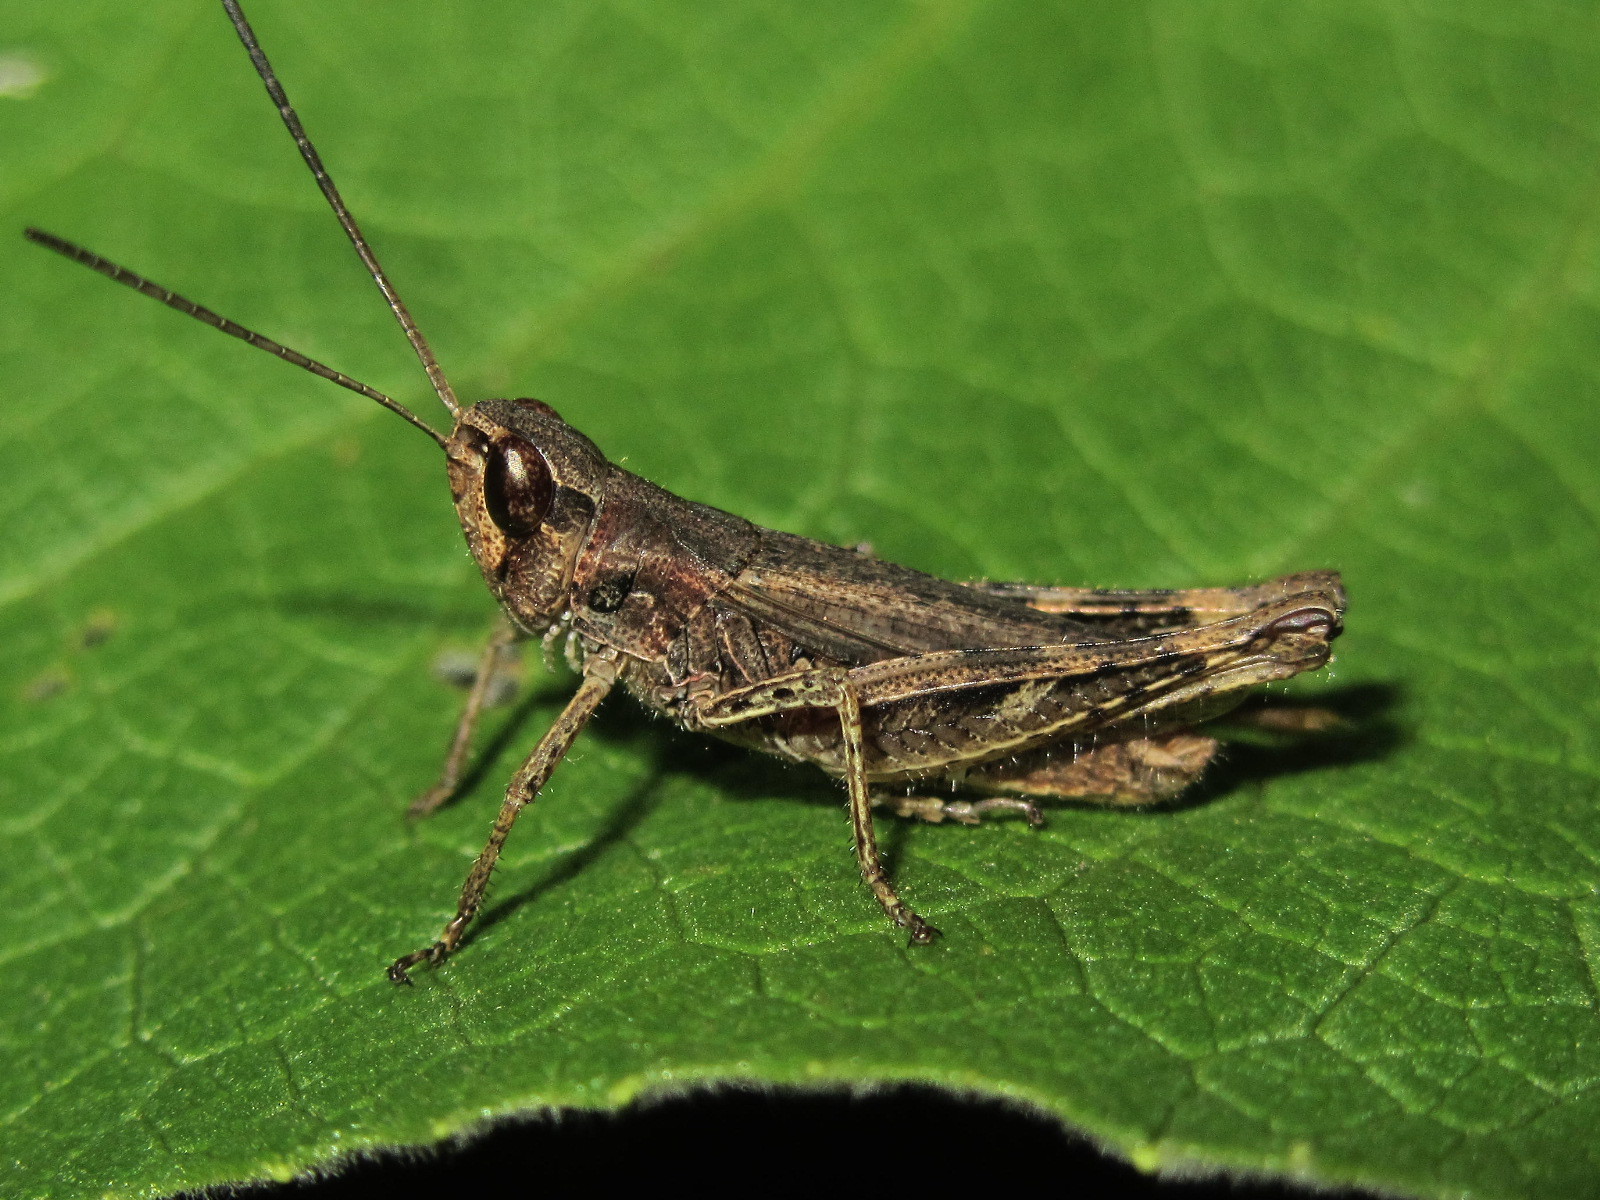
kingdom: Animalia
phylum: Arthropoda
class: Insecta
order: Orthoptera
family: Acrididae
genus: Chorthippus
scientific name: Chorthippus macrocerus
